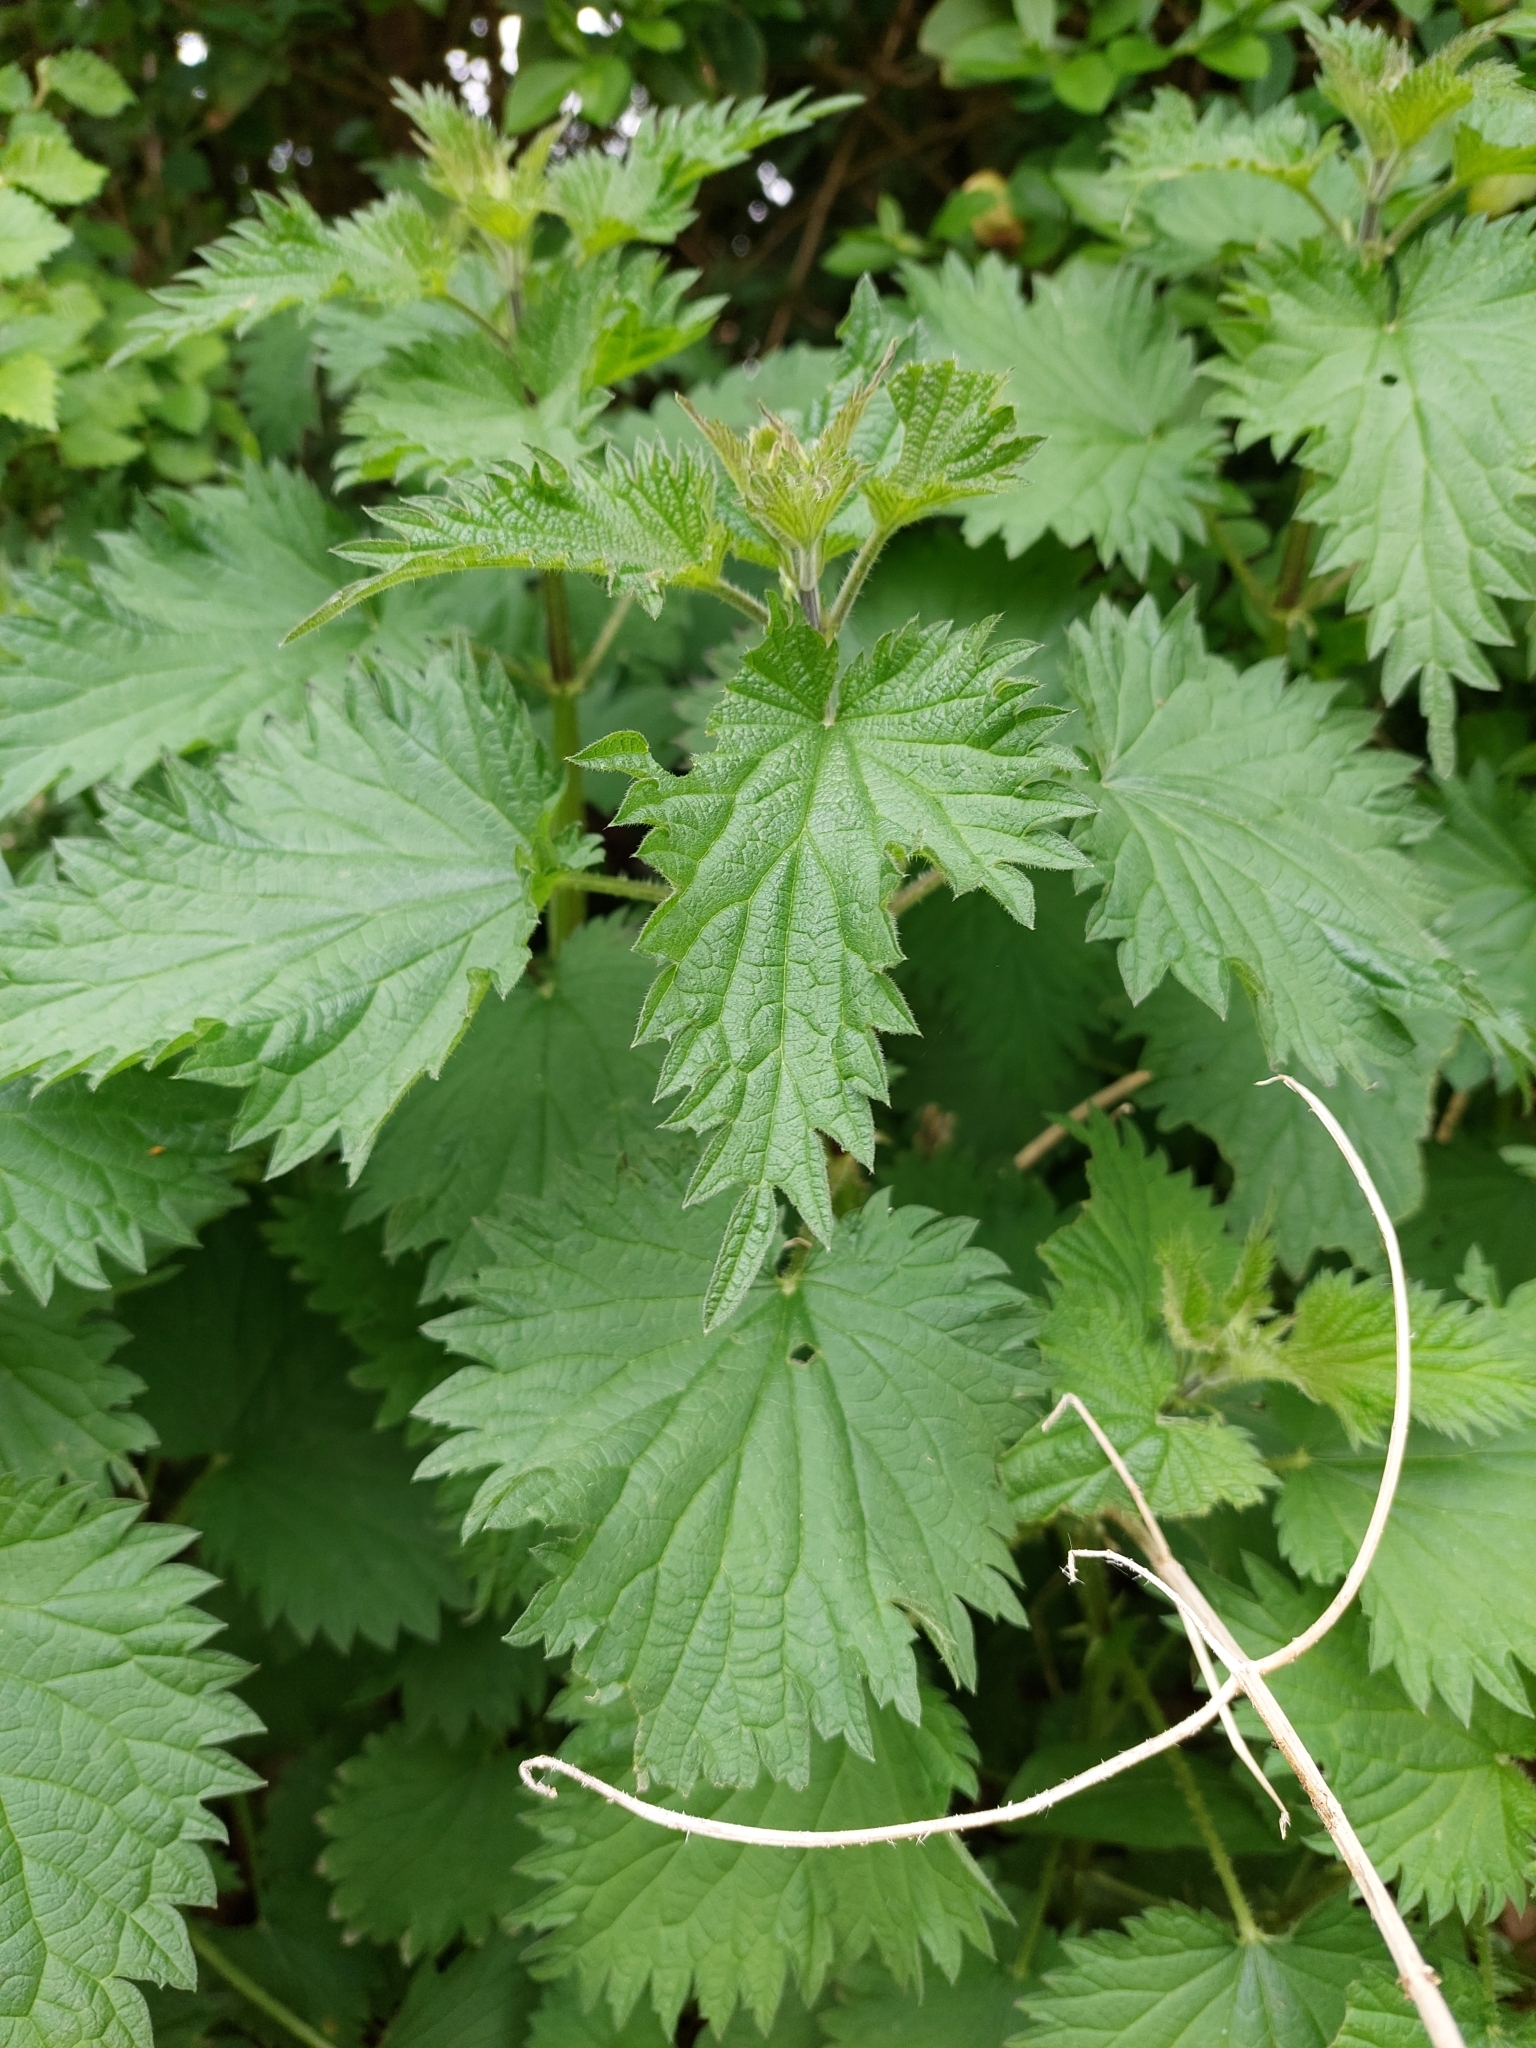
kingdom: Plantae
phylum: Tracheophyta
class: Magnoliopsida
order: Rosales
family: Urticaceae
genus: Urtica
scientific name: Urtica dioica
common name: Common nettle
